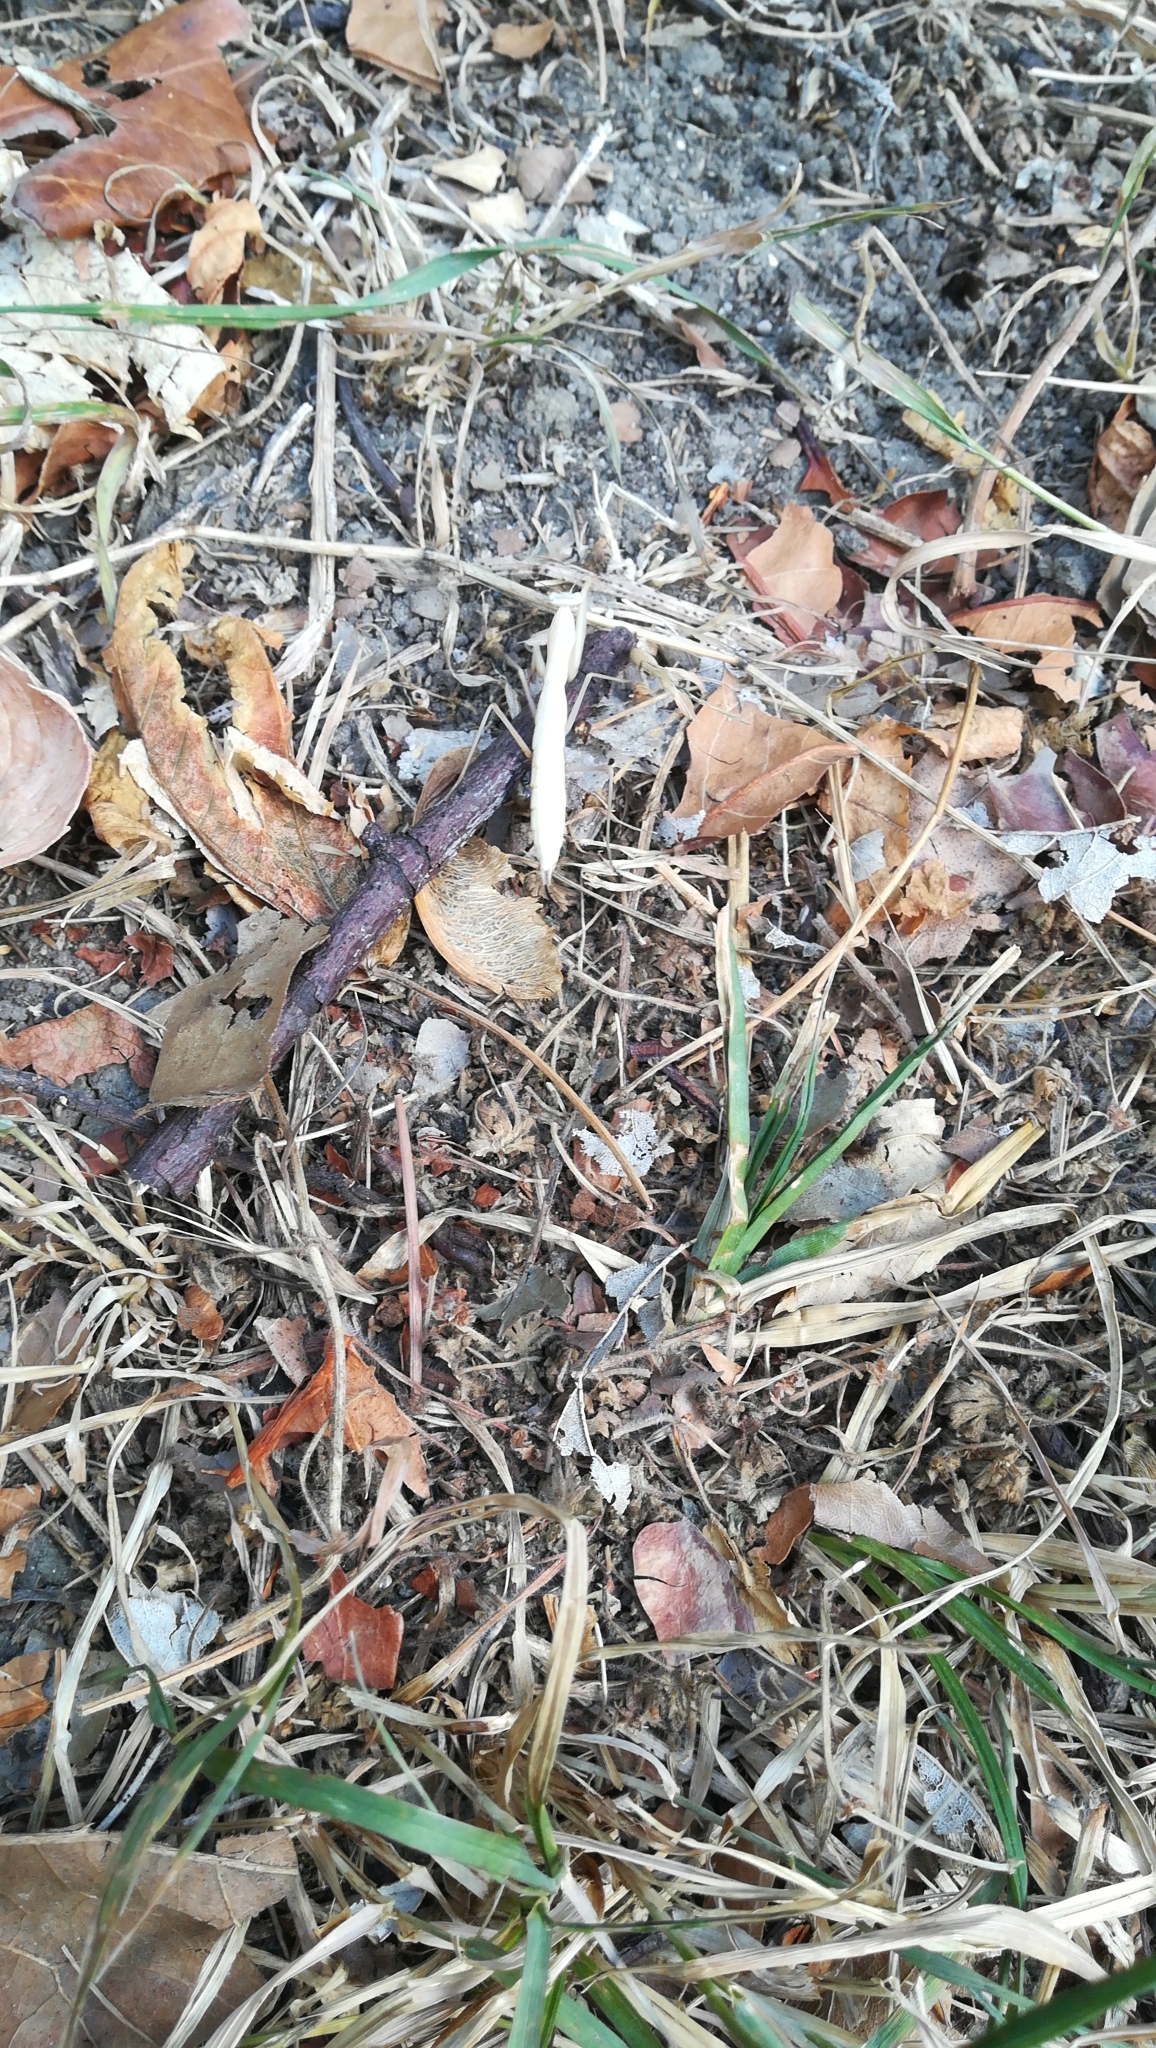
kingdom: Animalia
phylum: Arthropoda
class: Insecta
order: Mantodea
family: Mantidae
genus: Mantis
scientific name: Mantis religiosa
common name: Praying mantis
